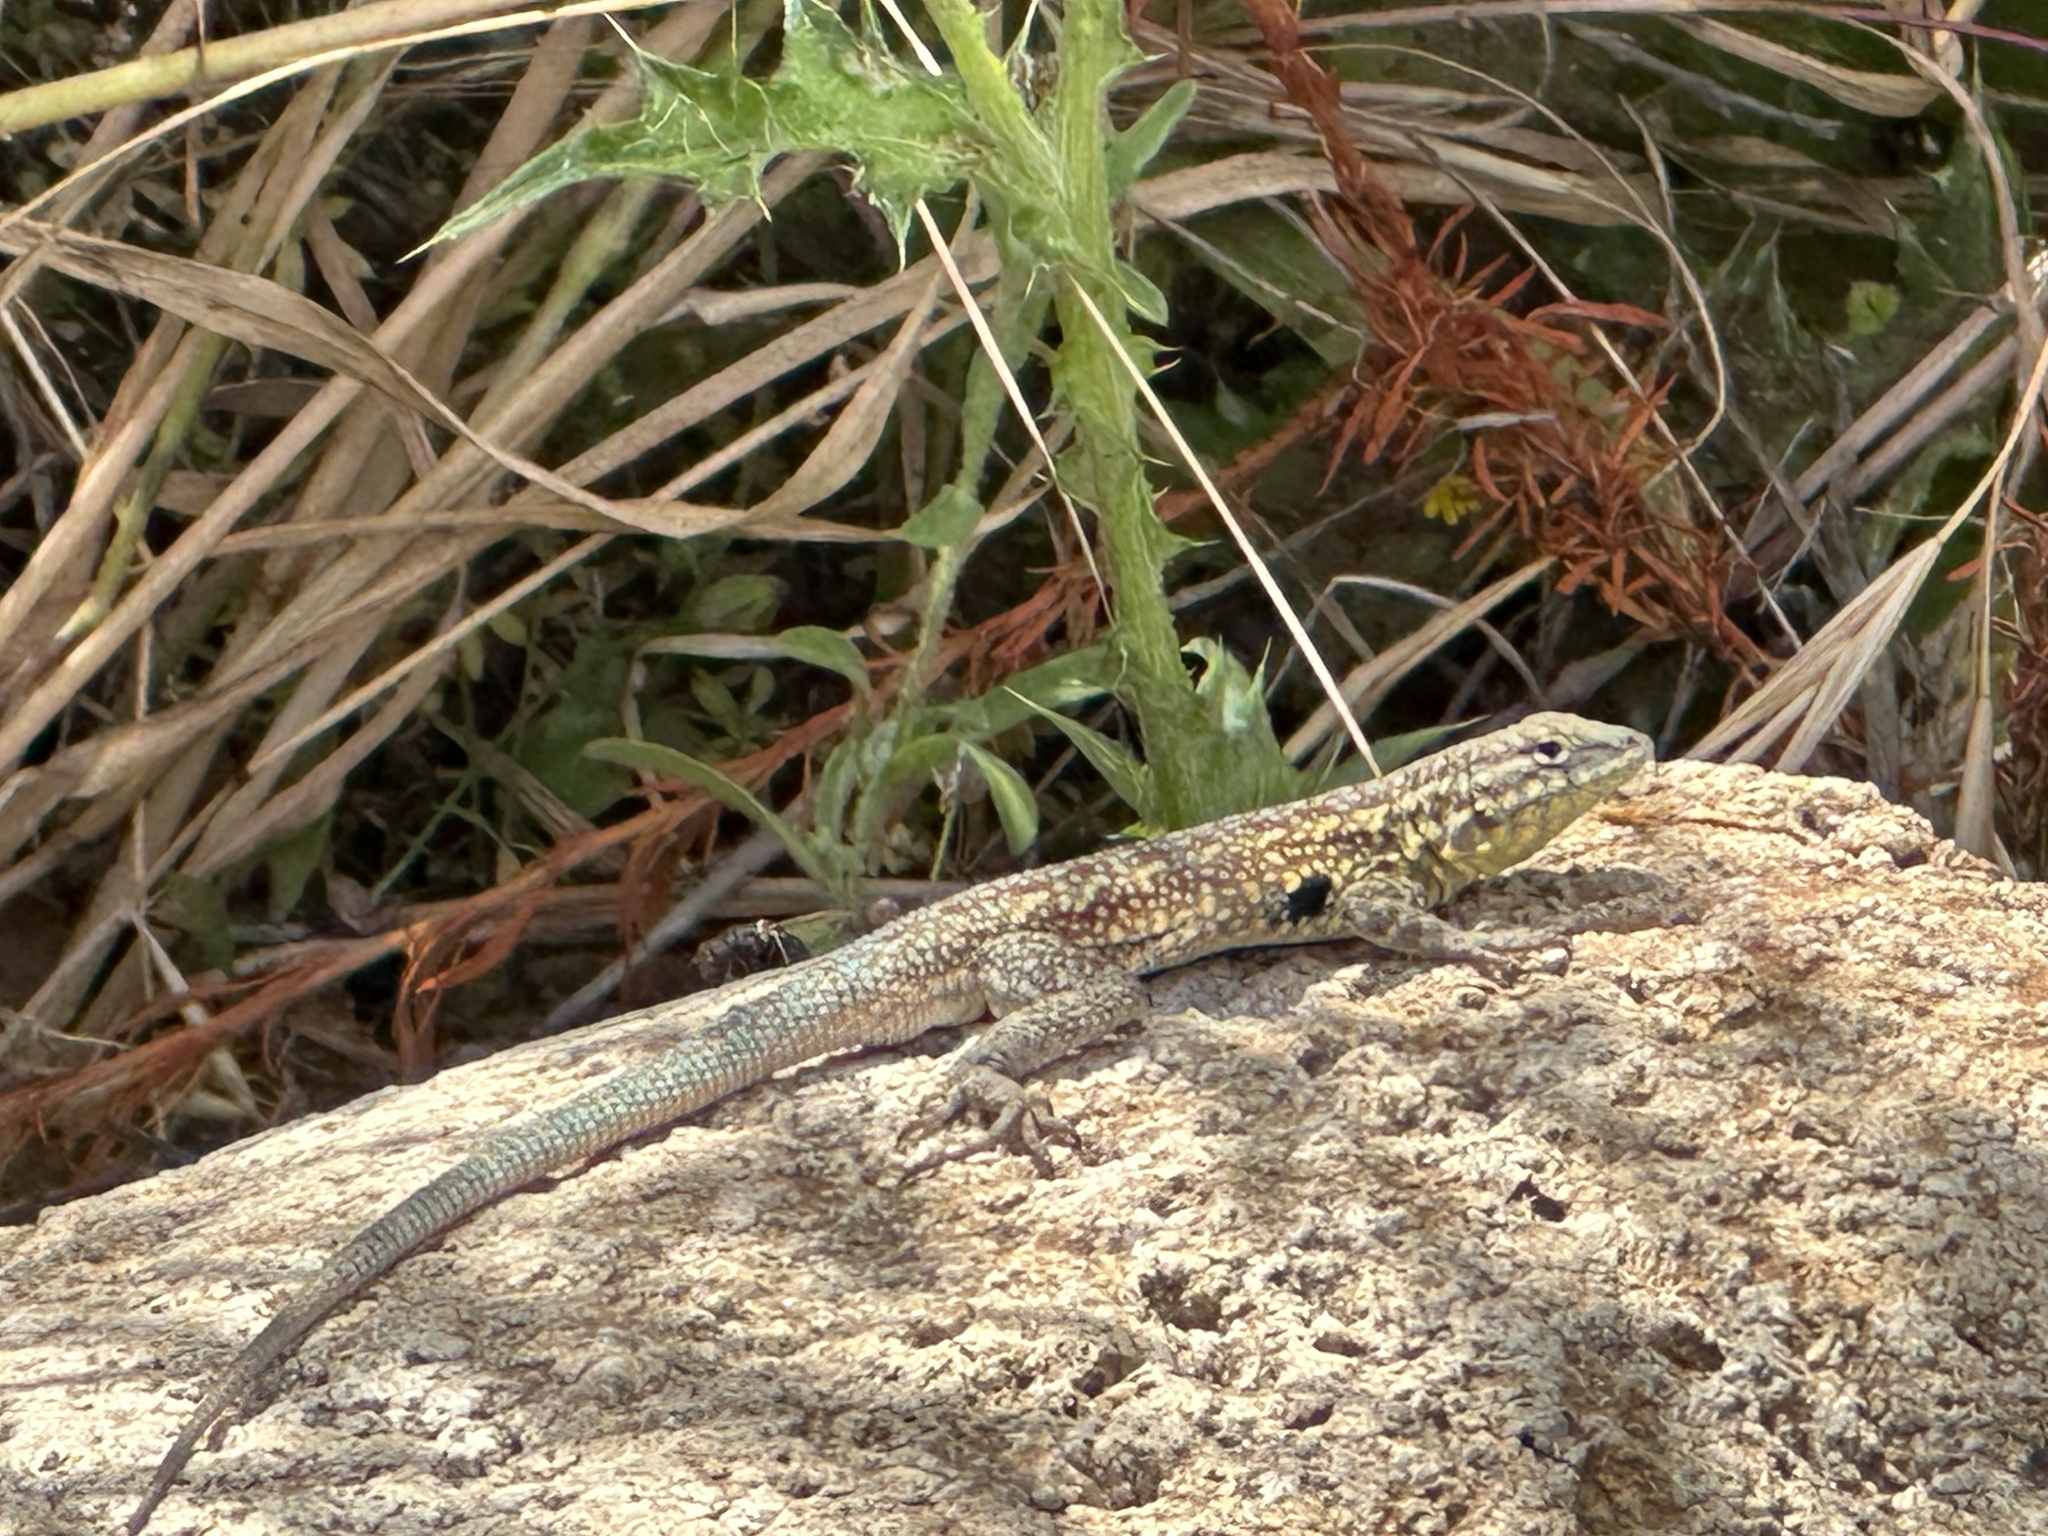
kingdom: Animalia
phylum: Chordata
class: Squamata
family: Phrynosomatidae
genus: Uta
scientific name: Uta stansburiana
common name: Side-blotched lizard
